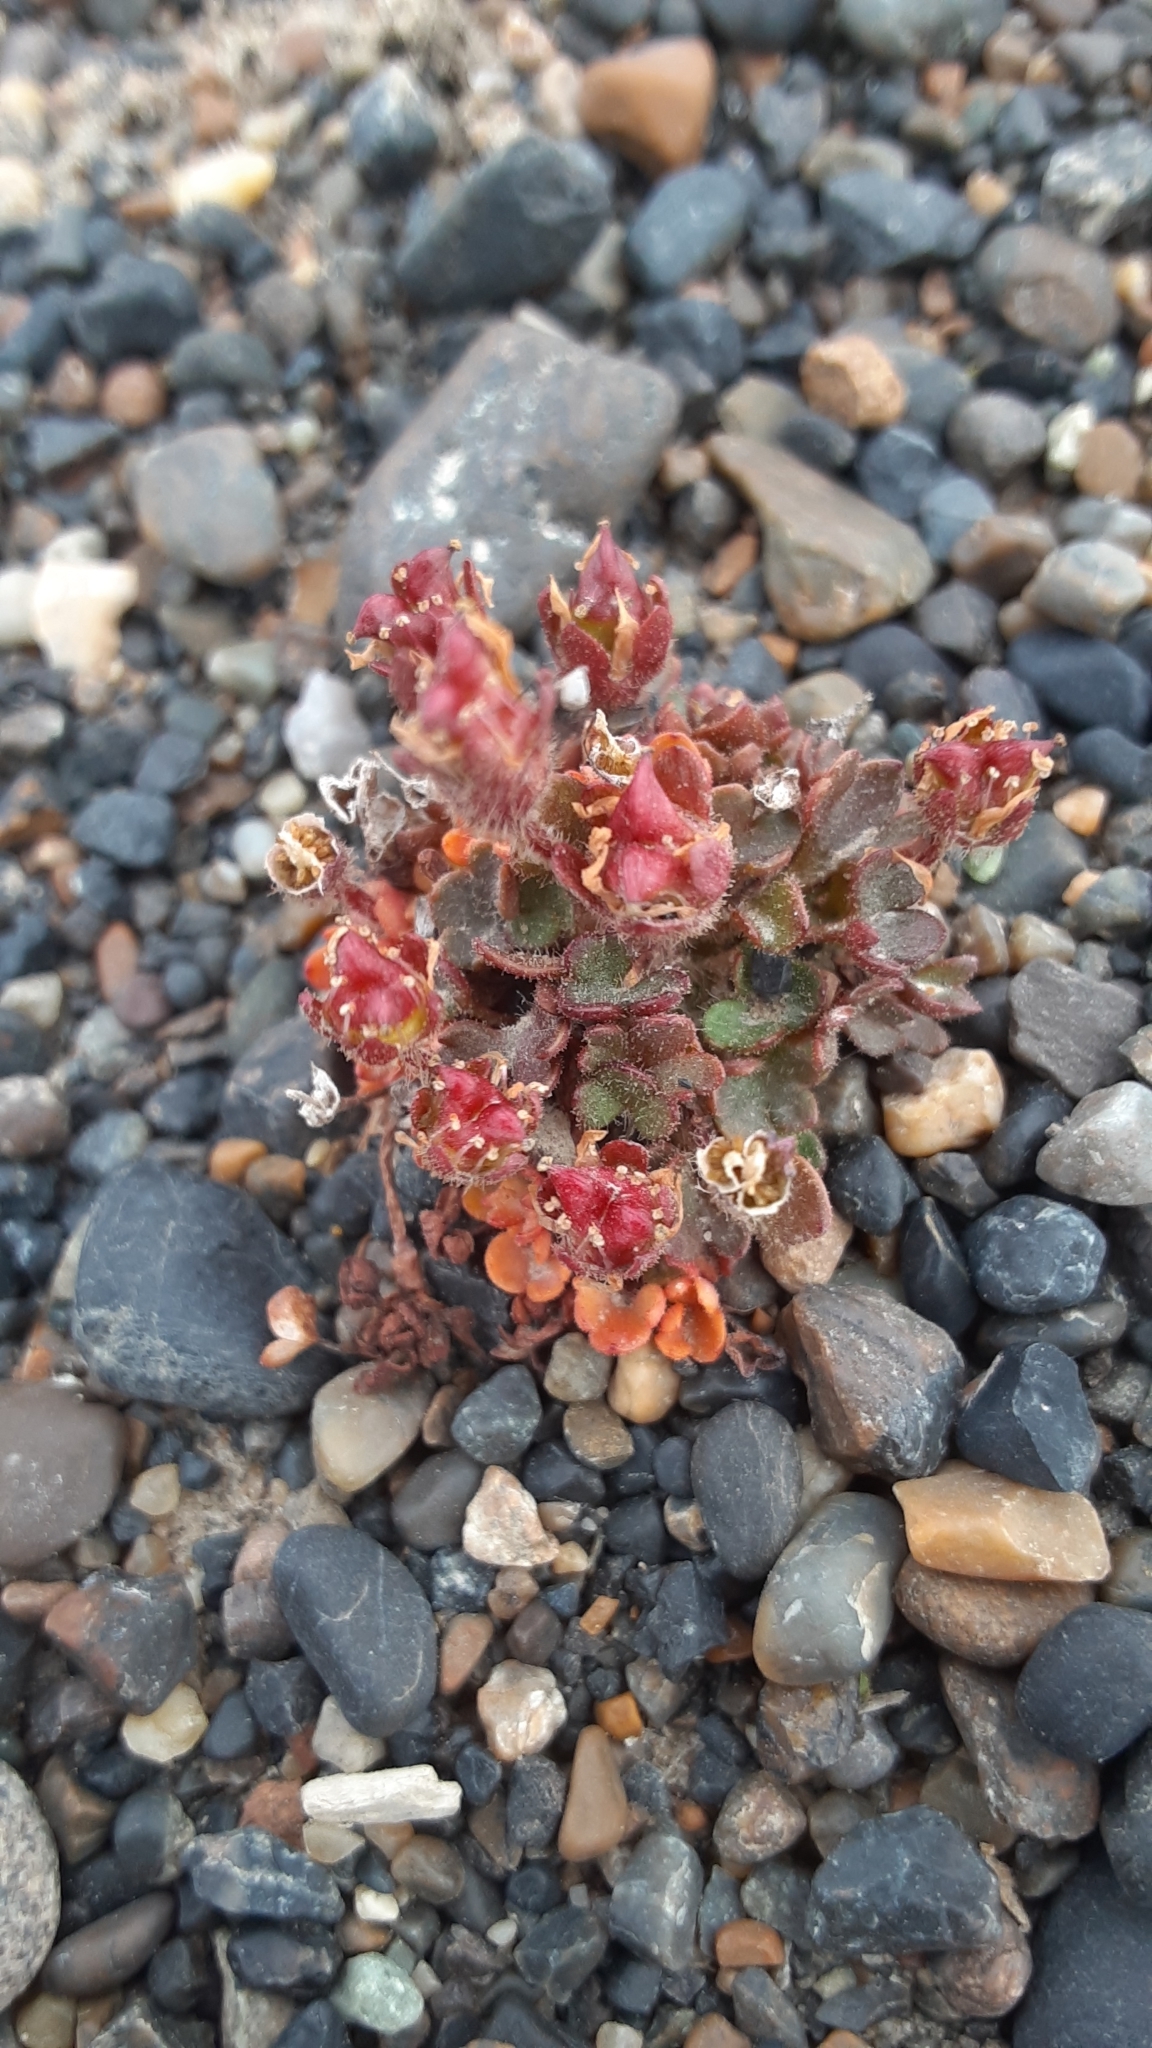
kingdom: Plantae
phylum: Tracheophyta
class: Magnoliopsida
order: Saxifragales
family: Saxifragaceae
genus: Saxifraga
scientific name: Saxifraga hyperborea
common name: Arctic saxifrage
